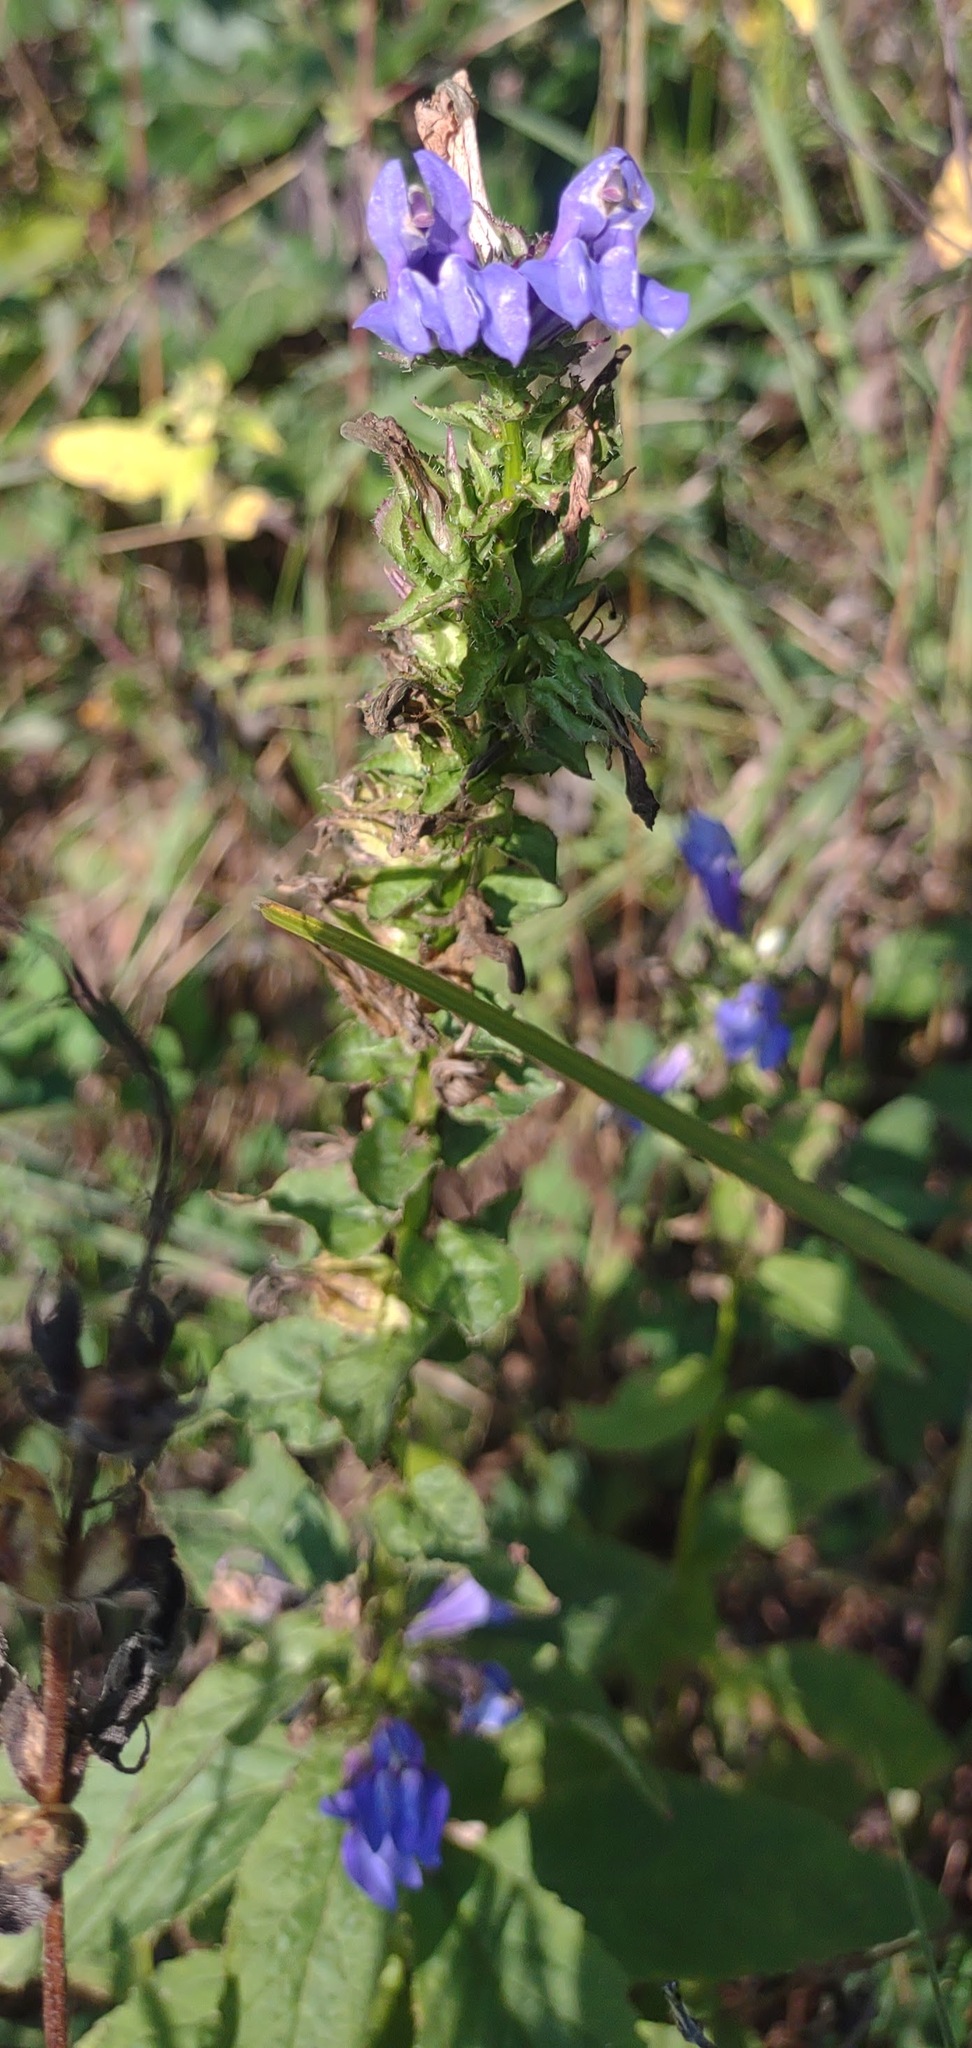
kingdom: Plantae
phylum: Tracheophyta
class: Magnoliopsida
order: Asterales
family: Campanulaceae
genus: Lobelia
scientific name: Lobelia siphilitica
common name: Great lobelia
